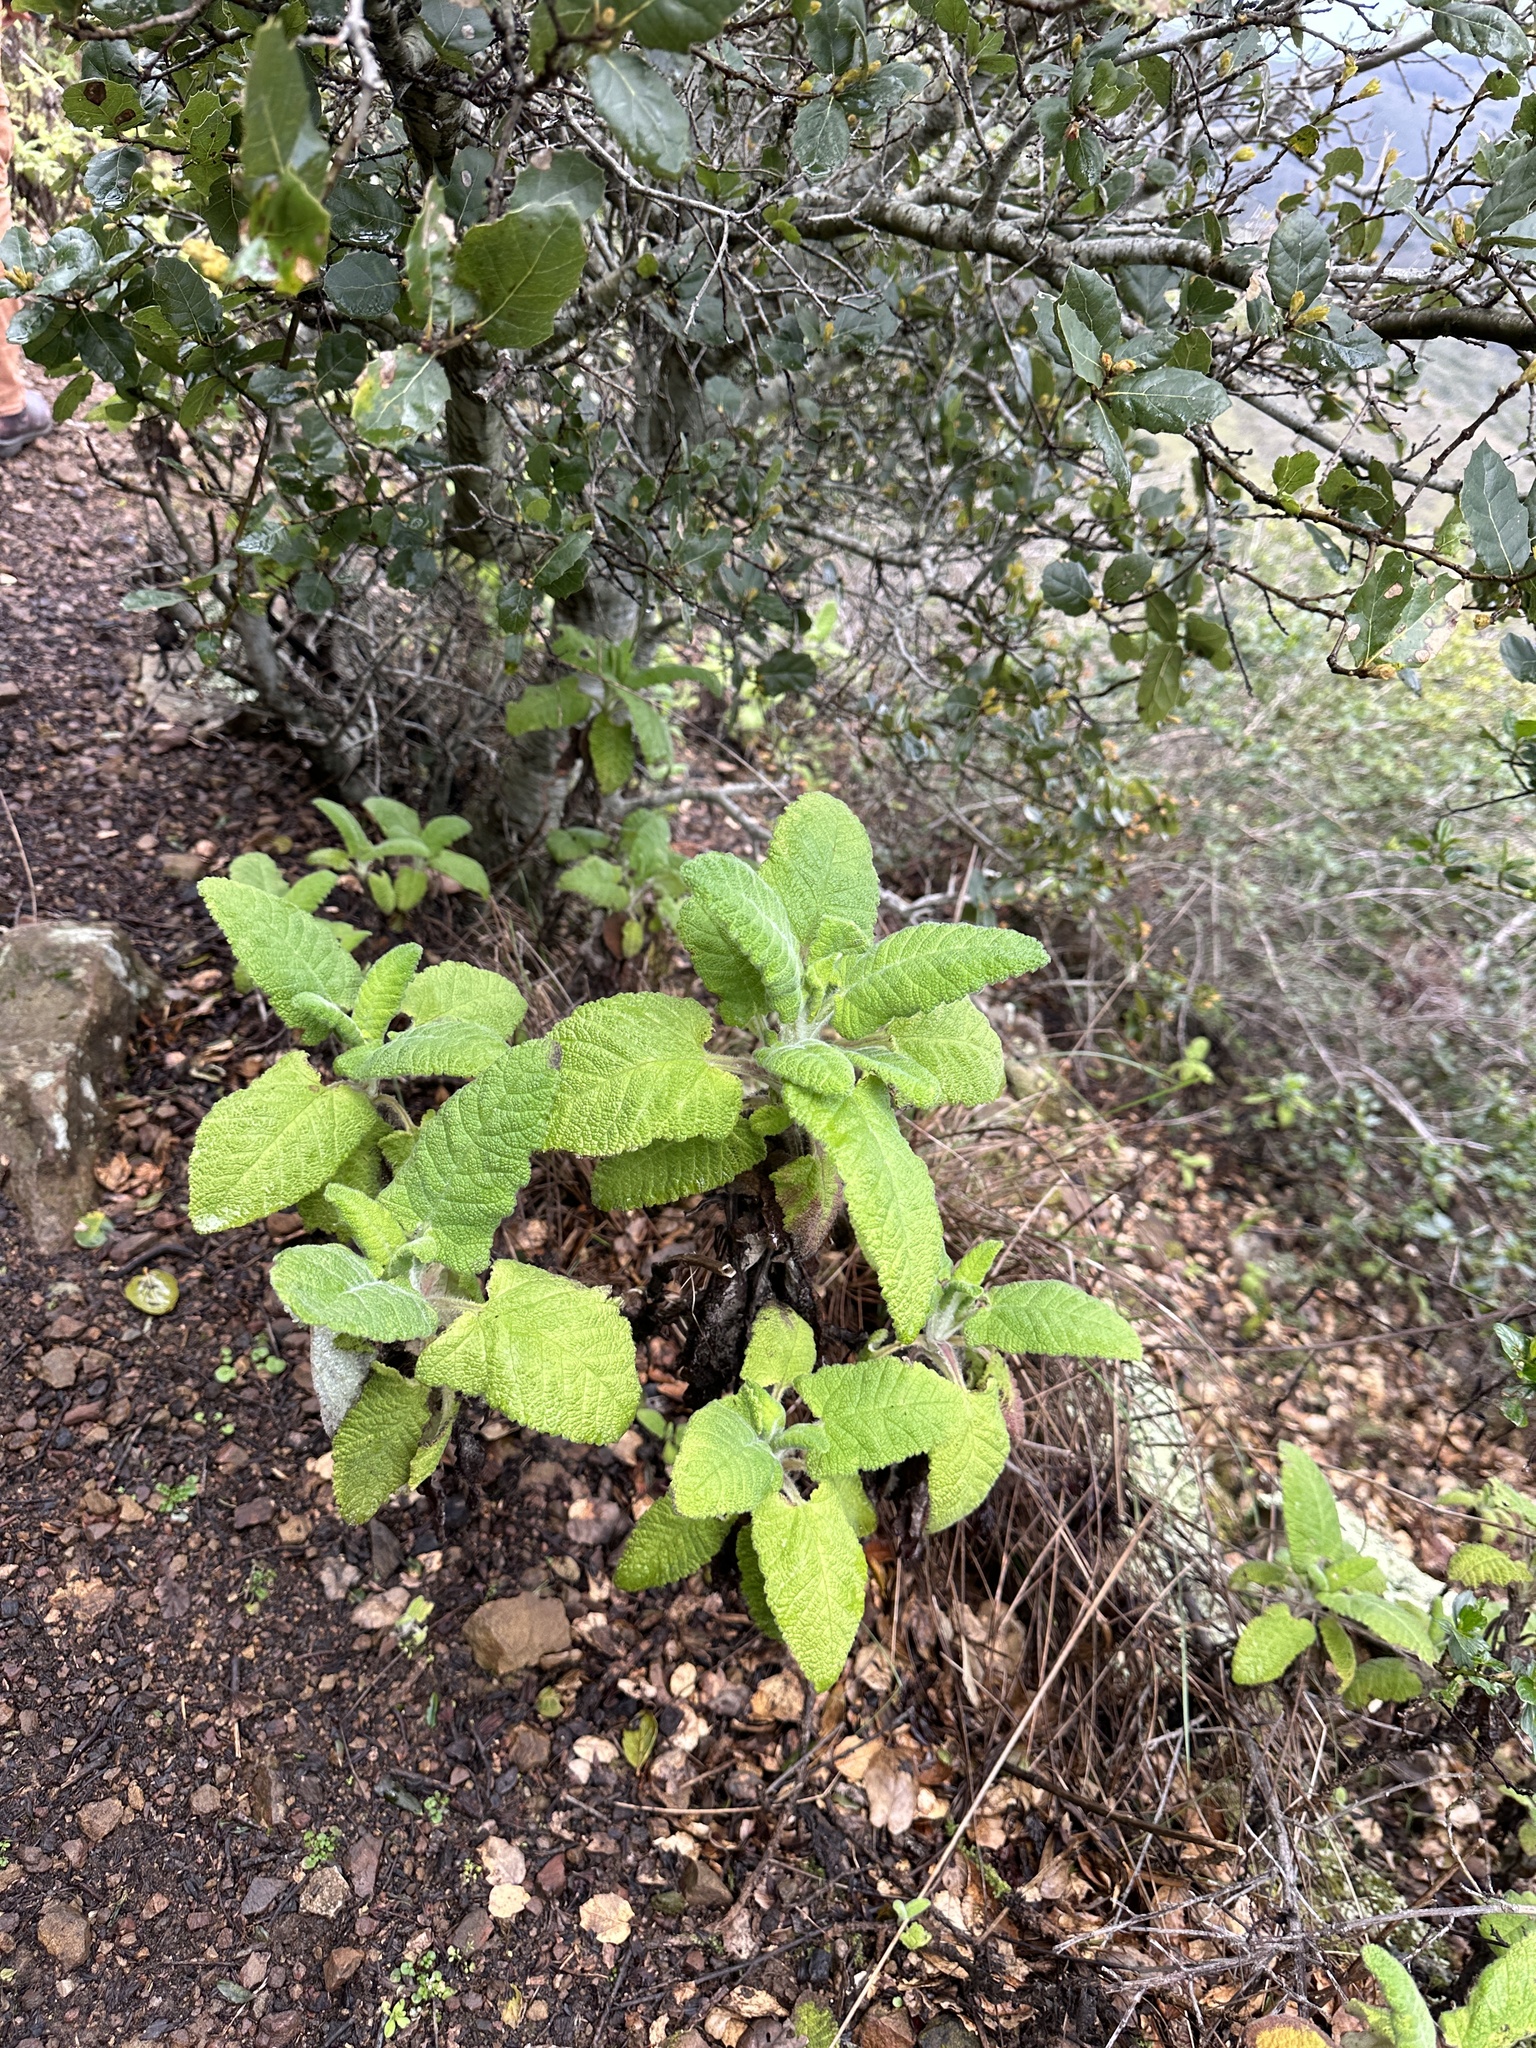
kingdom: Plantae
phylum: Tracheophyta
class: Magnoliopsida
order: Lamiales
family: Lamiaceae
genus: Salvia
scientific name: Salvia spathacea
